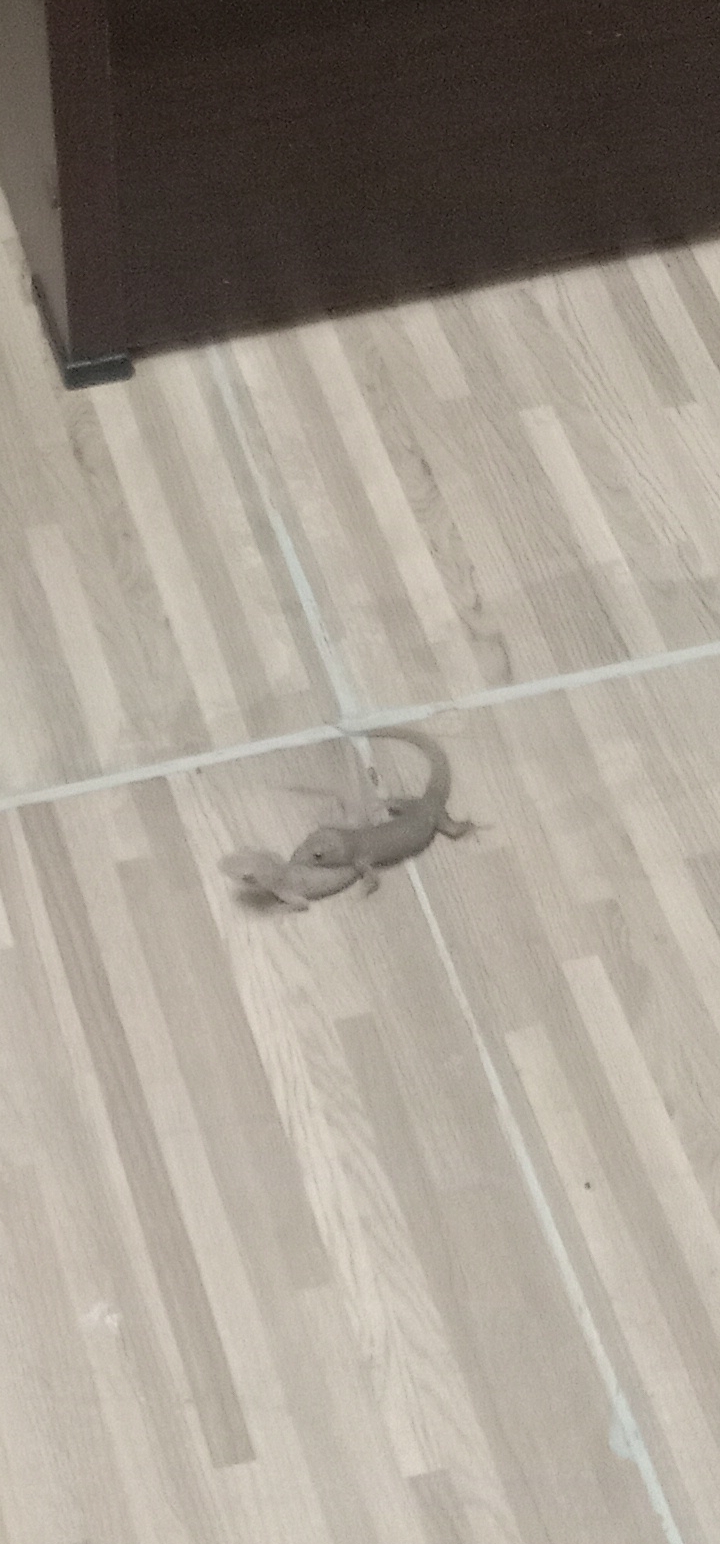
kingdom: Animalia
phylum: Chordata
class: Squamata
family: Gekkonidae
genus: Hemidactylus
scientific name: Hemidactylus frenatus
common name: Common house gecko
